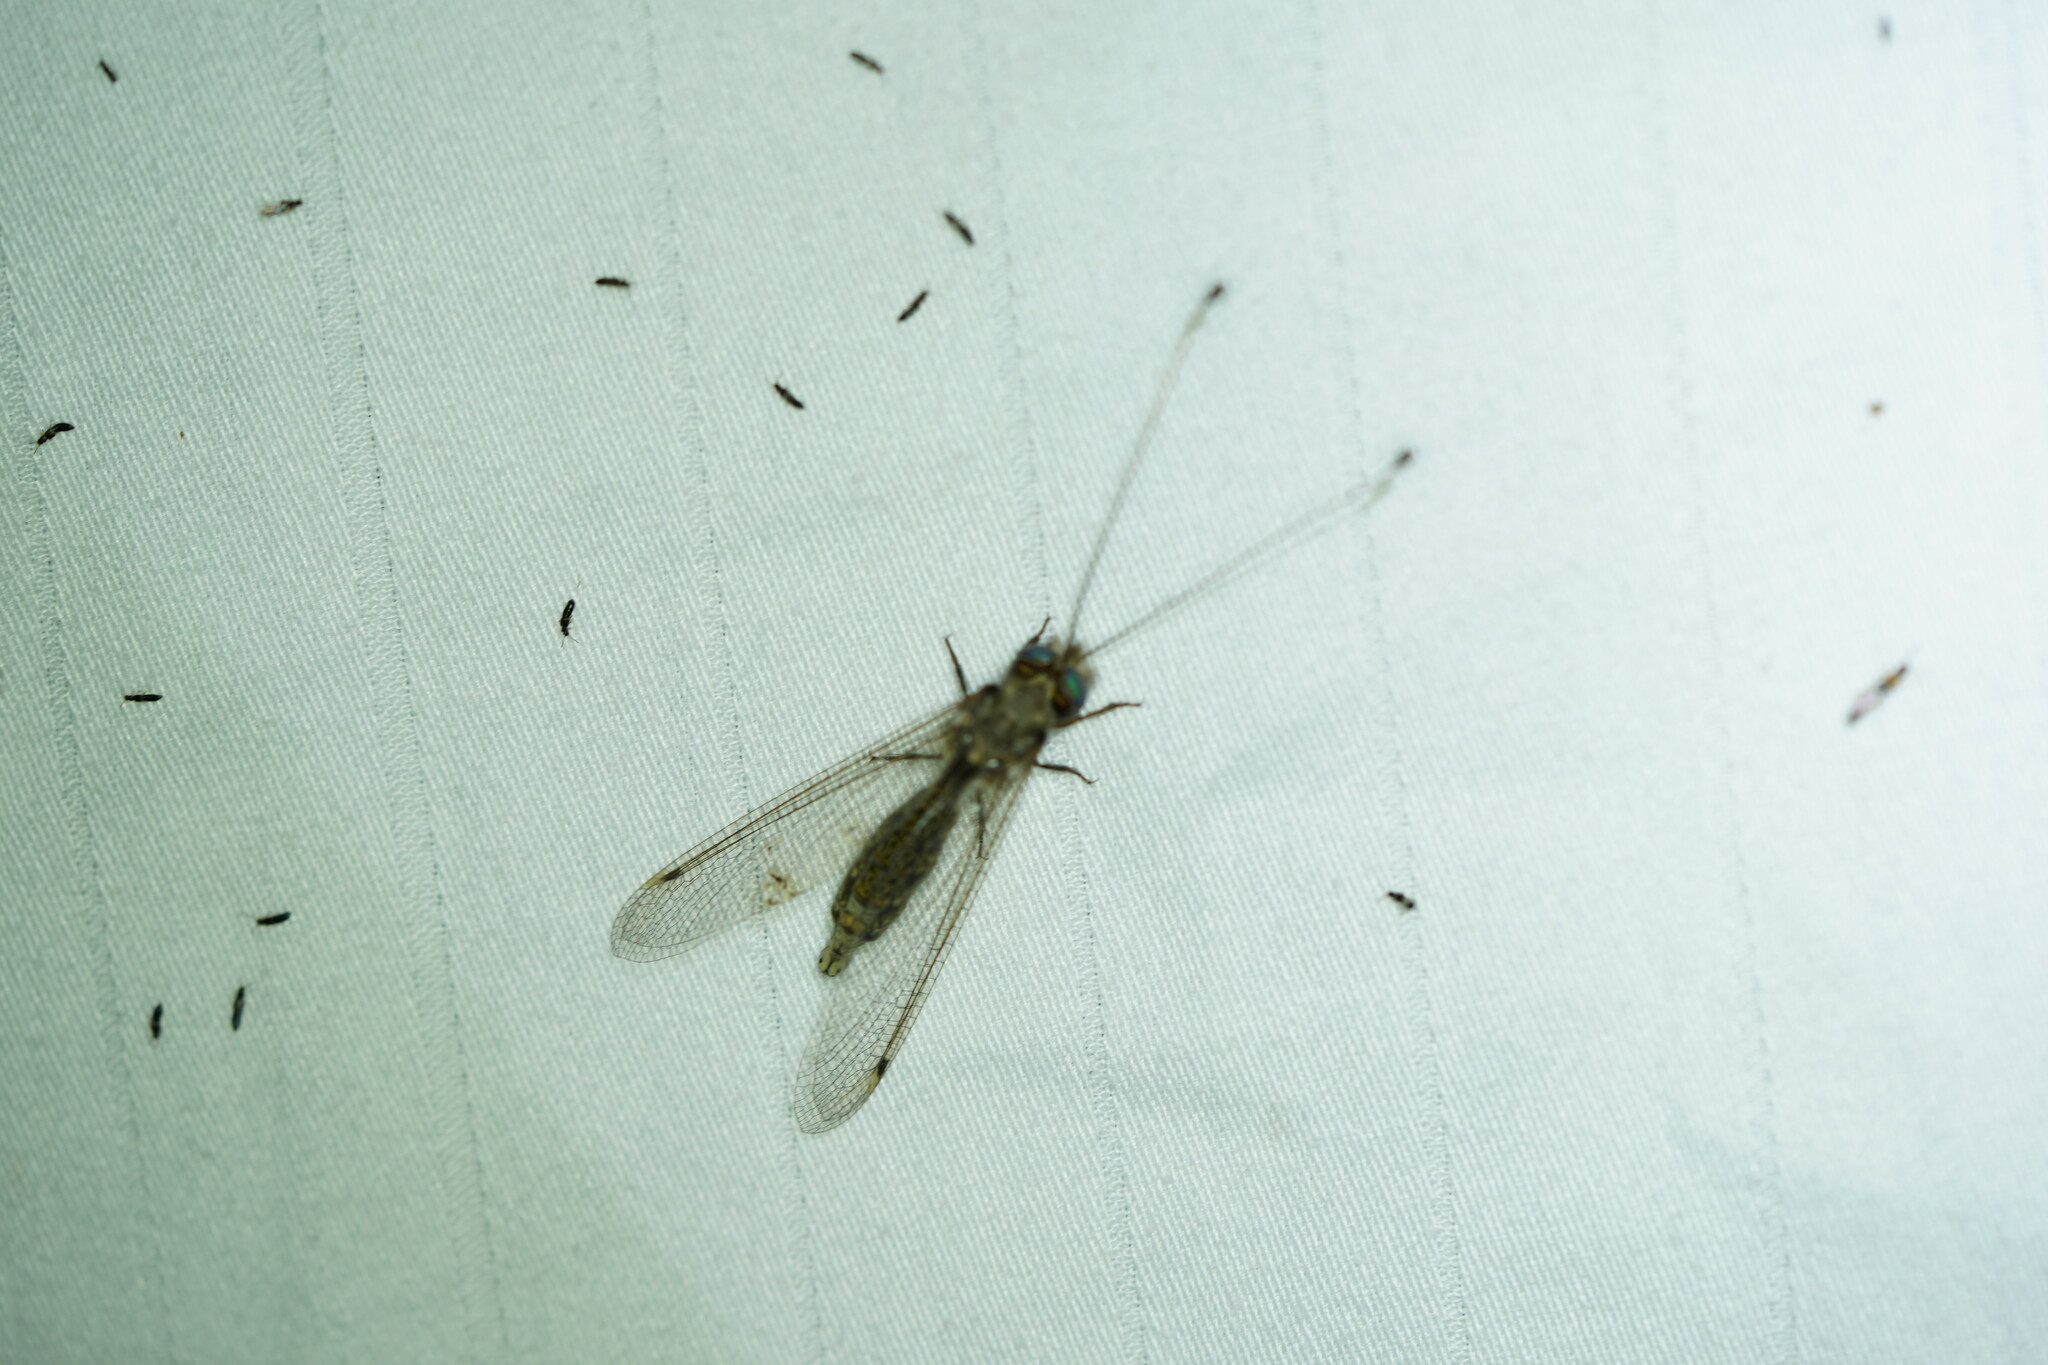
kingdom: Animalia
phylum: Arthropoda
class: Insecta
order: Neuroptera
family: Ascalaphidae
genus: Ululodes
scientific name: Ululodes floridanus
